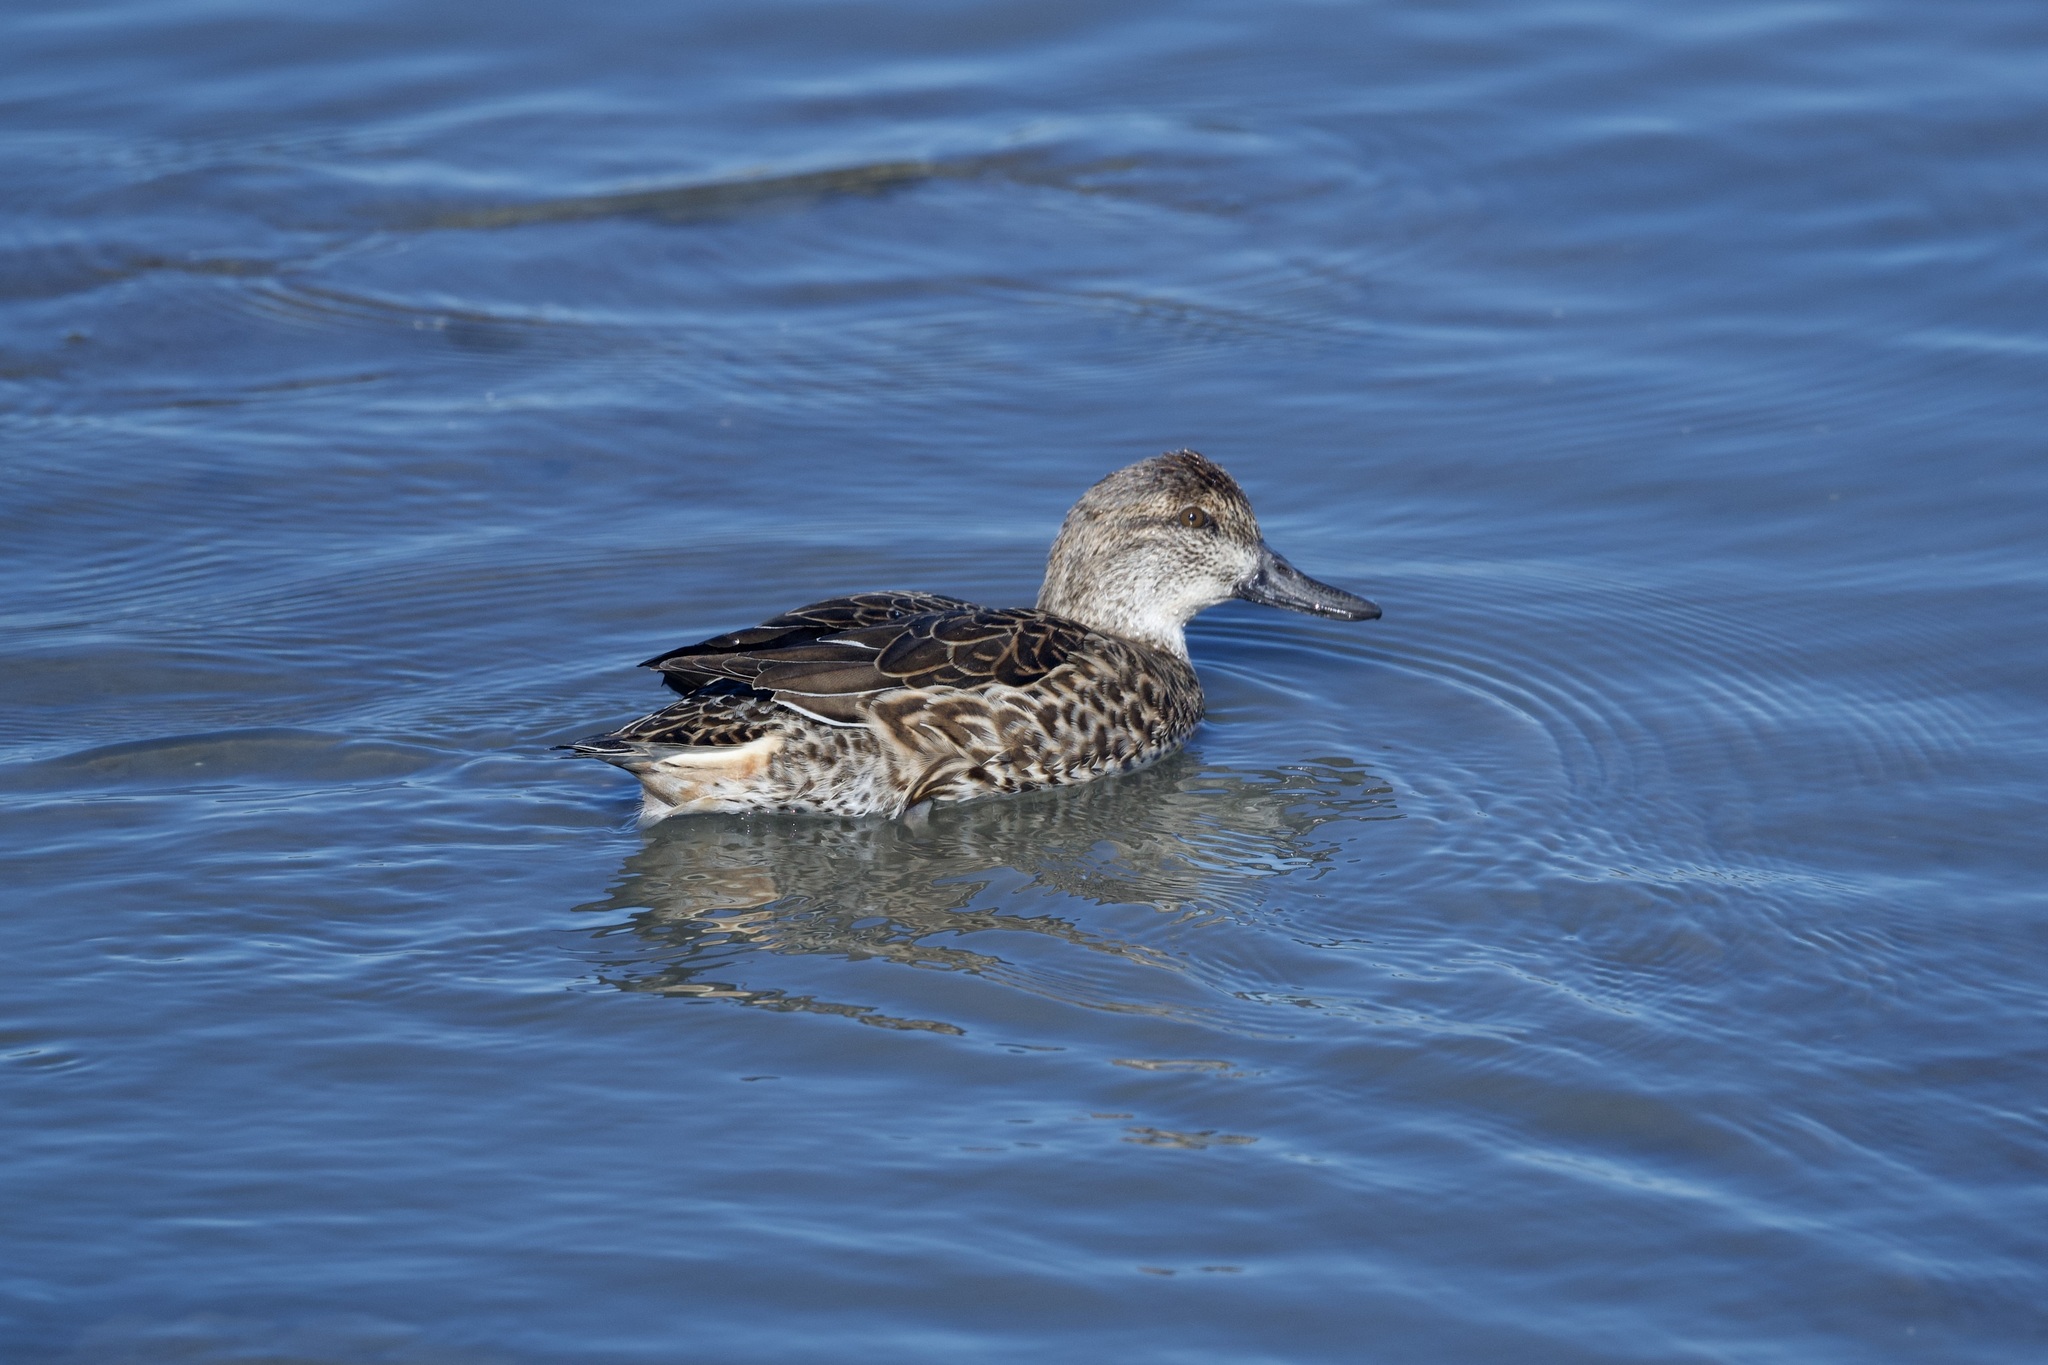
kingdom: Animalia
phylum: Chordata
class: Aves
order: Anseriformes
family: Anatidae
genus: Anas
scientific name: Anas crecca
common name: Eurasian teal
